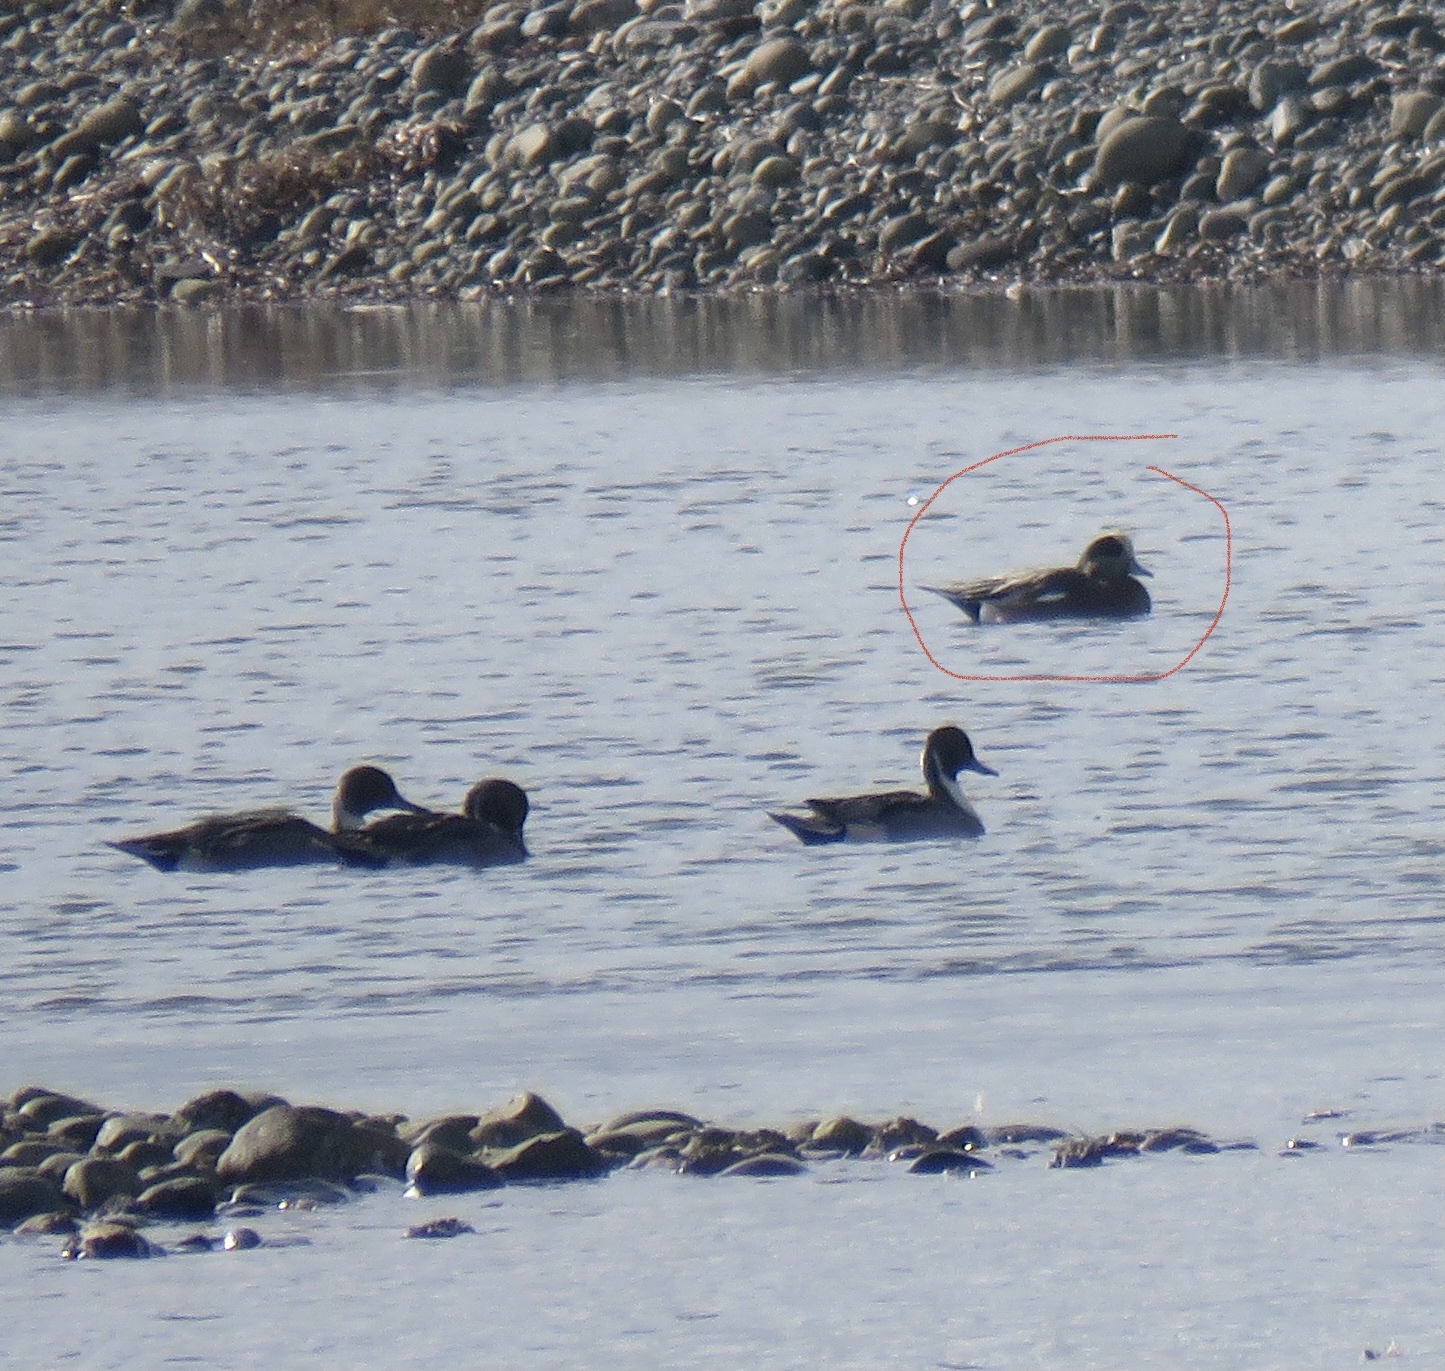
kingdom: Animalia
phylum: Chordata
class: Aves
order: Anseriformes
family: Anatidae
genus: Mareca
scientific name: Mareca americana
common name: American wigeon
